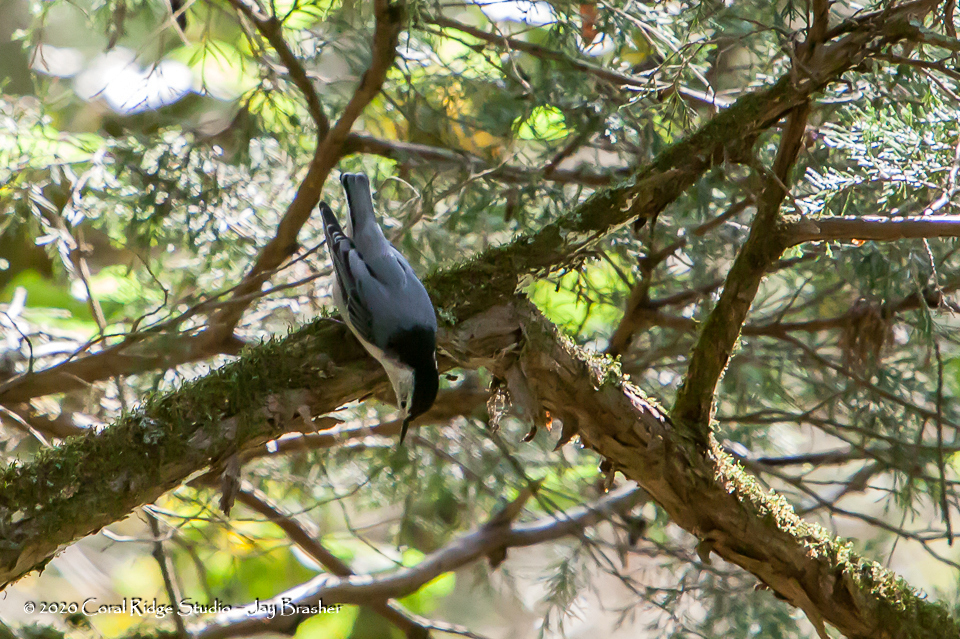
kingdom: Animalia
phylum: Chordata
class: Aves
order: Passeriformes
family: Sittidae
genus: Sitta
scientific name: Sitta carolinensis
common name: White-breasted nuthatch
